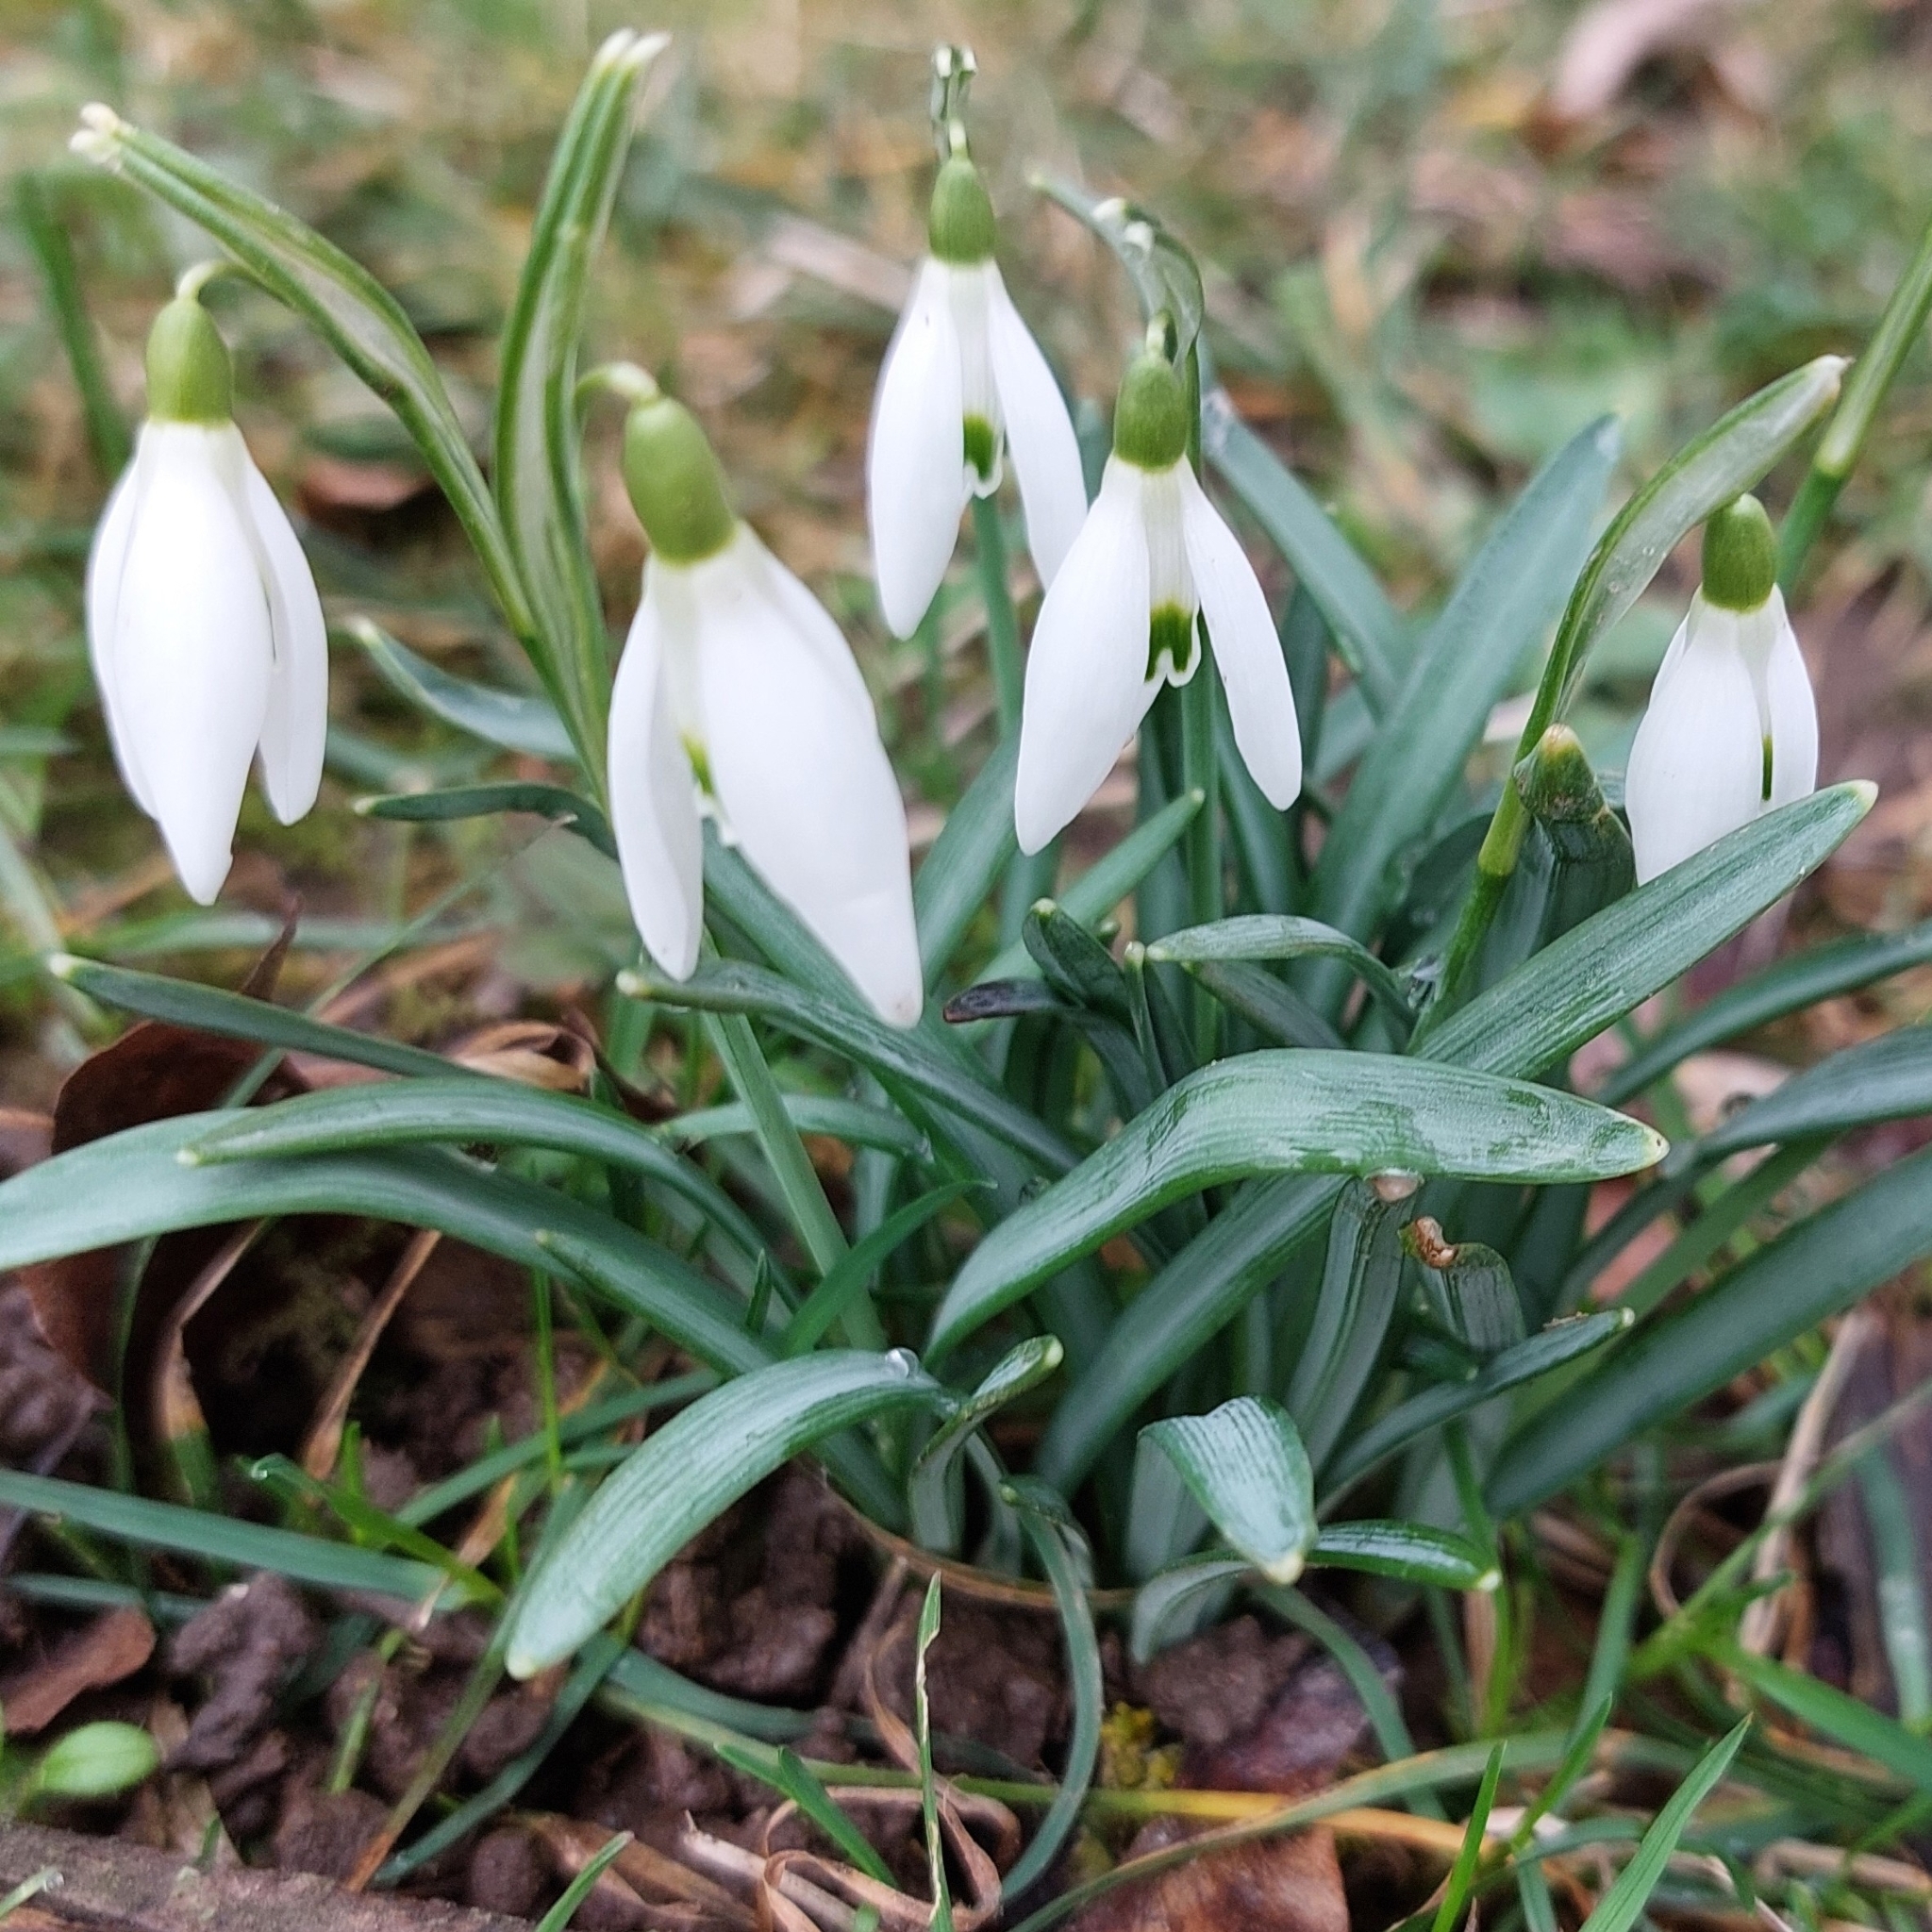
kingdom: Plantae
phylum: Tracheophyta
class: Liliopsida
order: Asparagales
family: Amaryllidaceae
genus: Galanthus
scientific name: Galanthus nivalis
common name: Snowdrop
